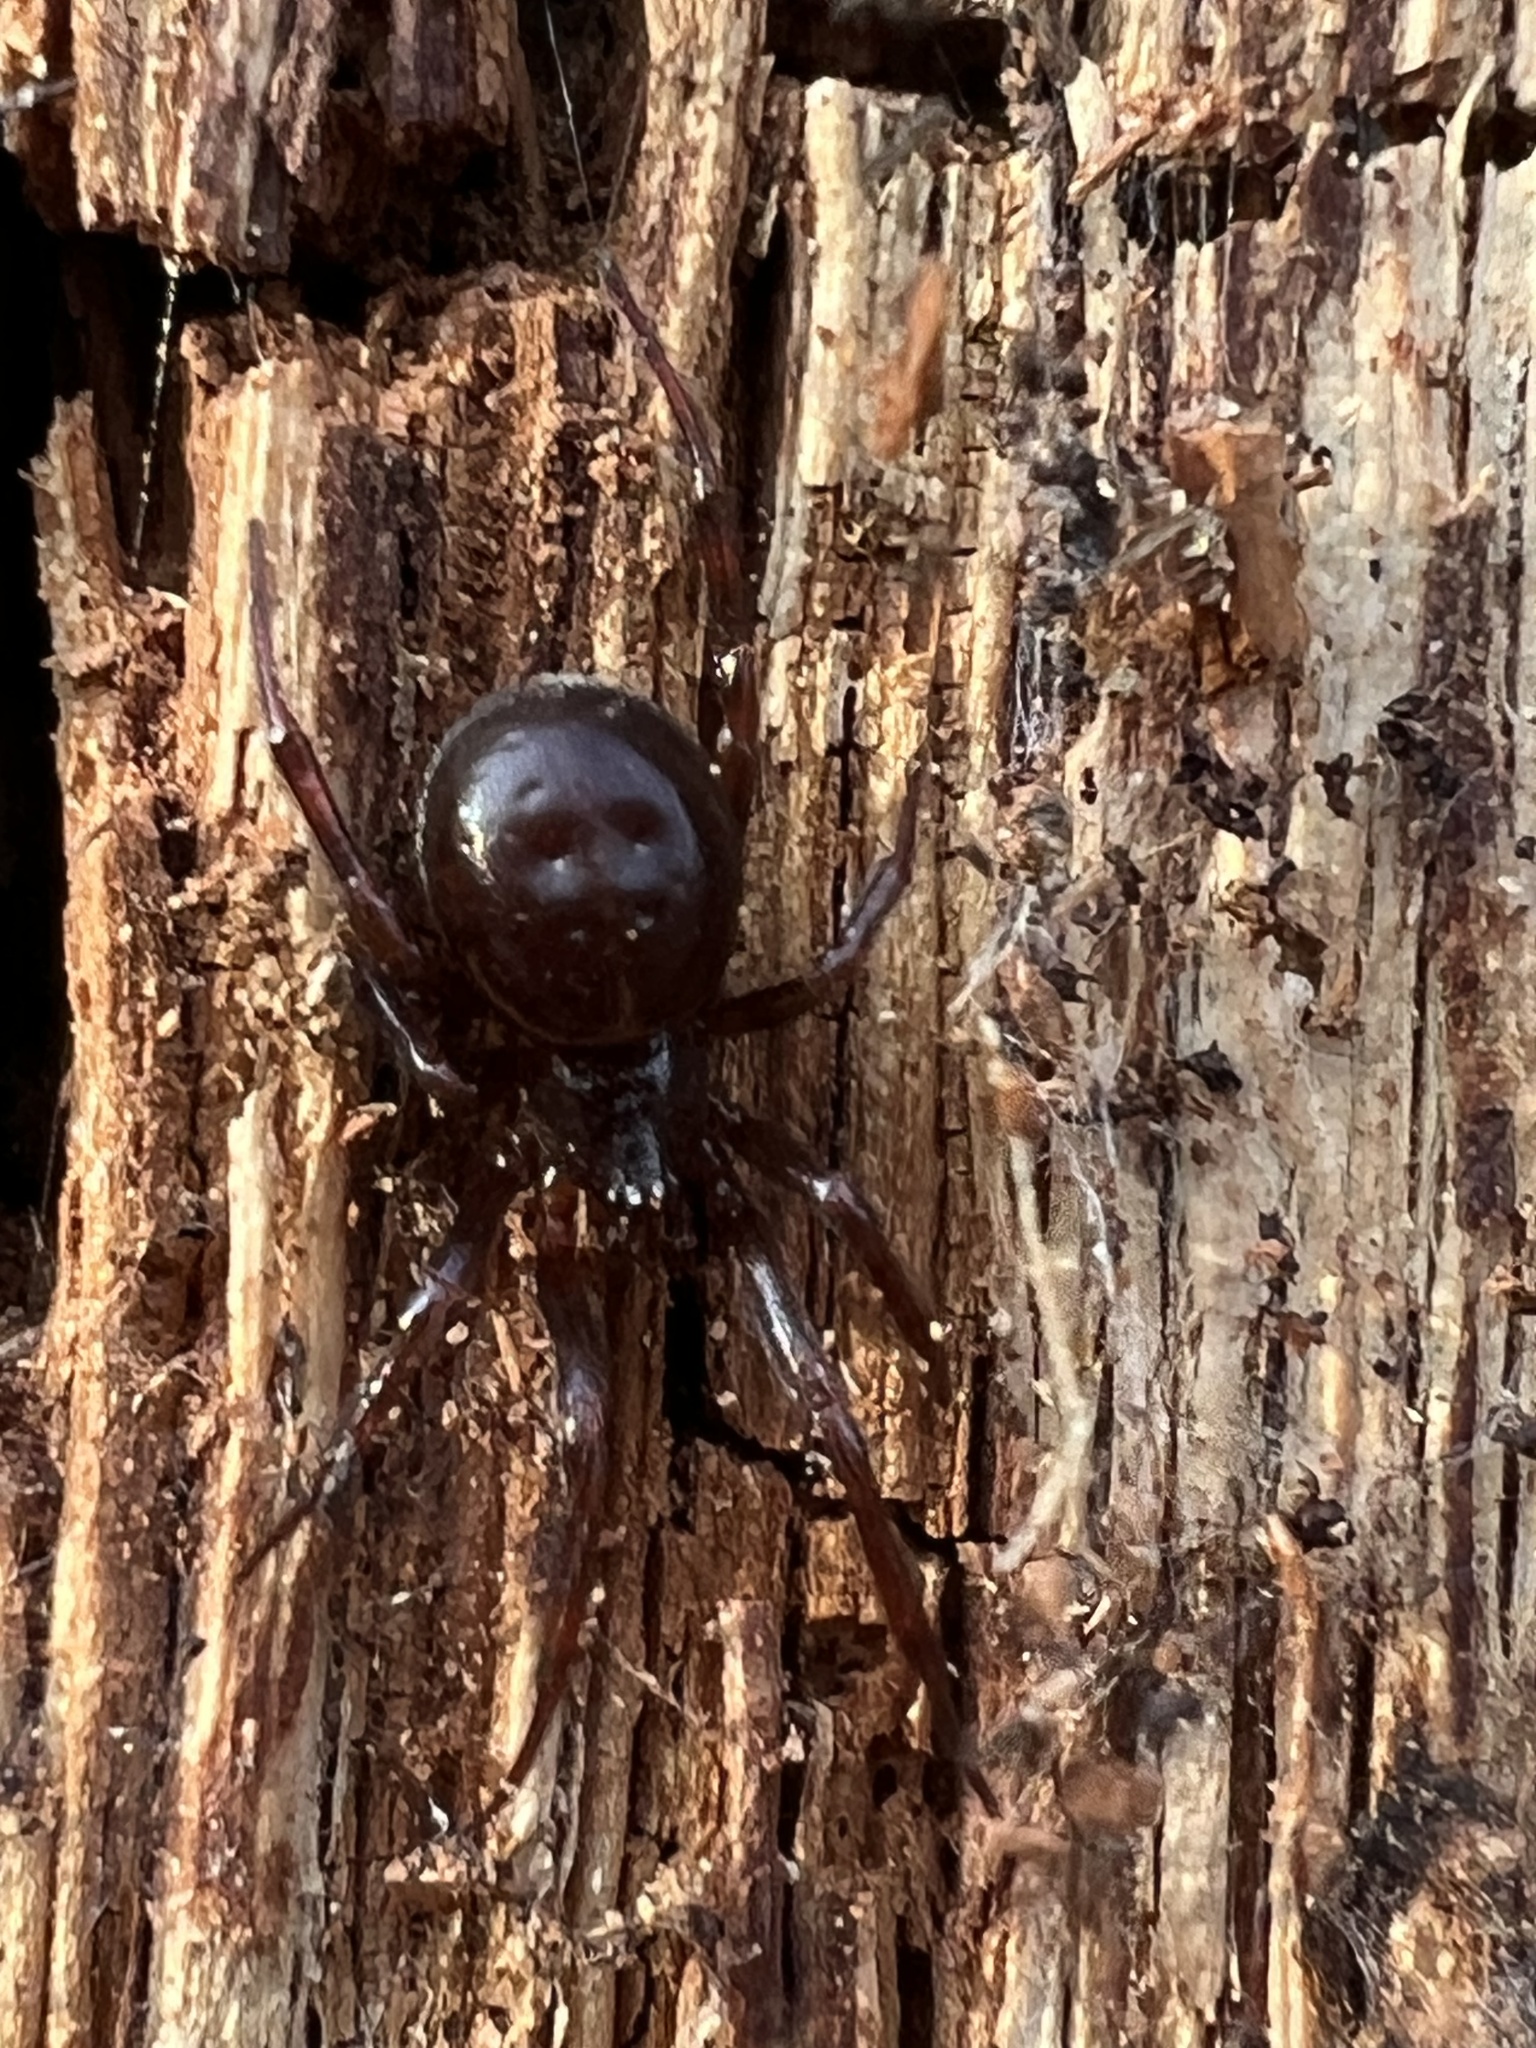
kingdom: Animalia
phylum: Arthropoda
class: Arachnida
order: Araneae
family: Theridiidae
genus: Steatoda
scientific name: Steatoda borealis
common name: Boreal combfoot
